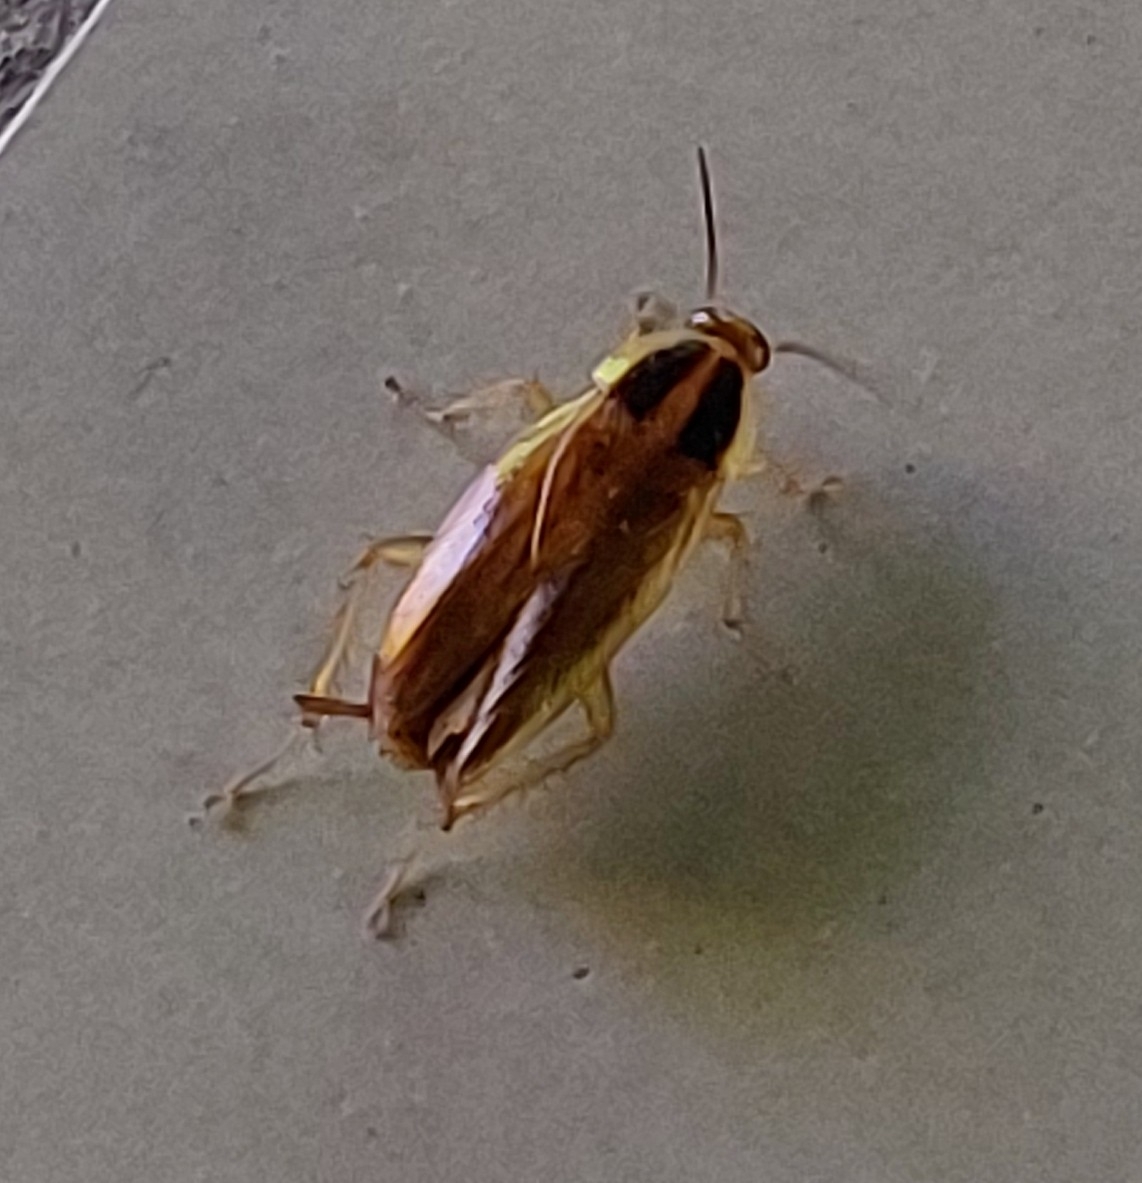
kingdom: Animalia
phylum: Arthropoda
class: Insecta
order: Blattodea
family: Ectobiidae
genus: Blattella
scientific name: Blattella germanica
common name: German cockroach
